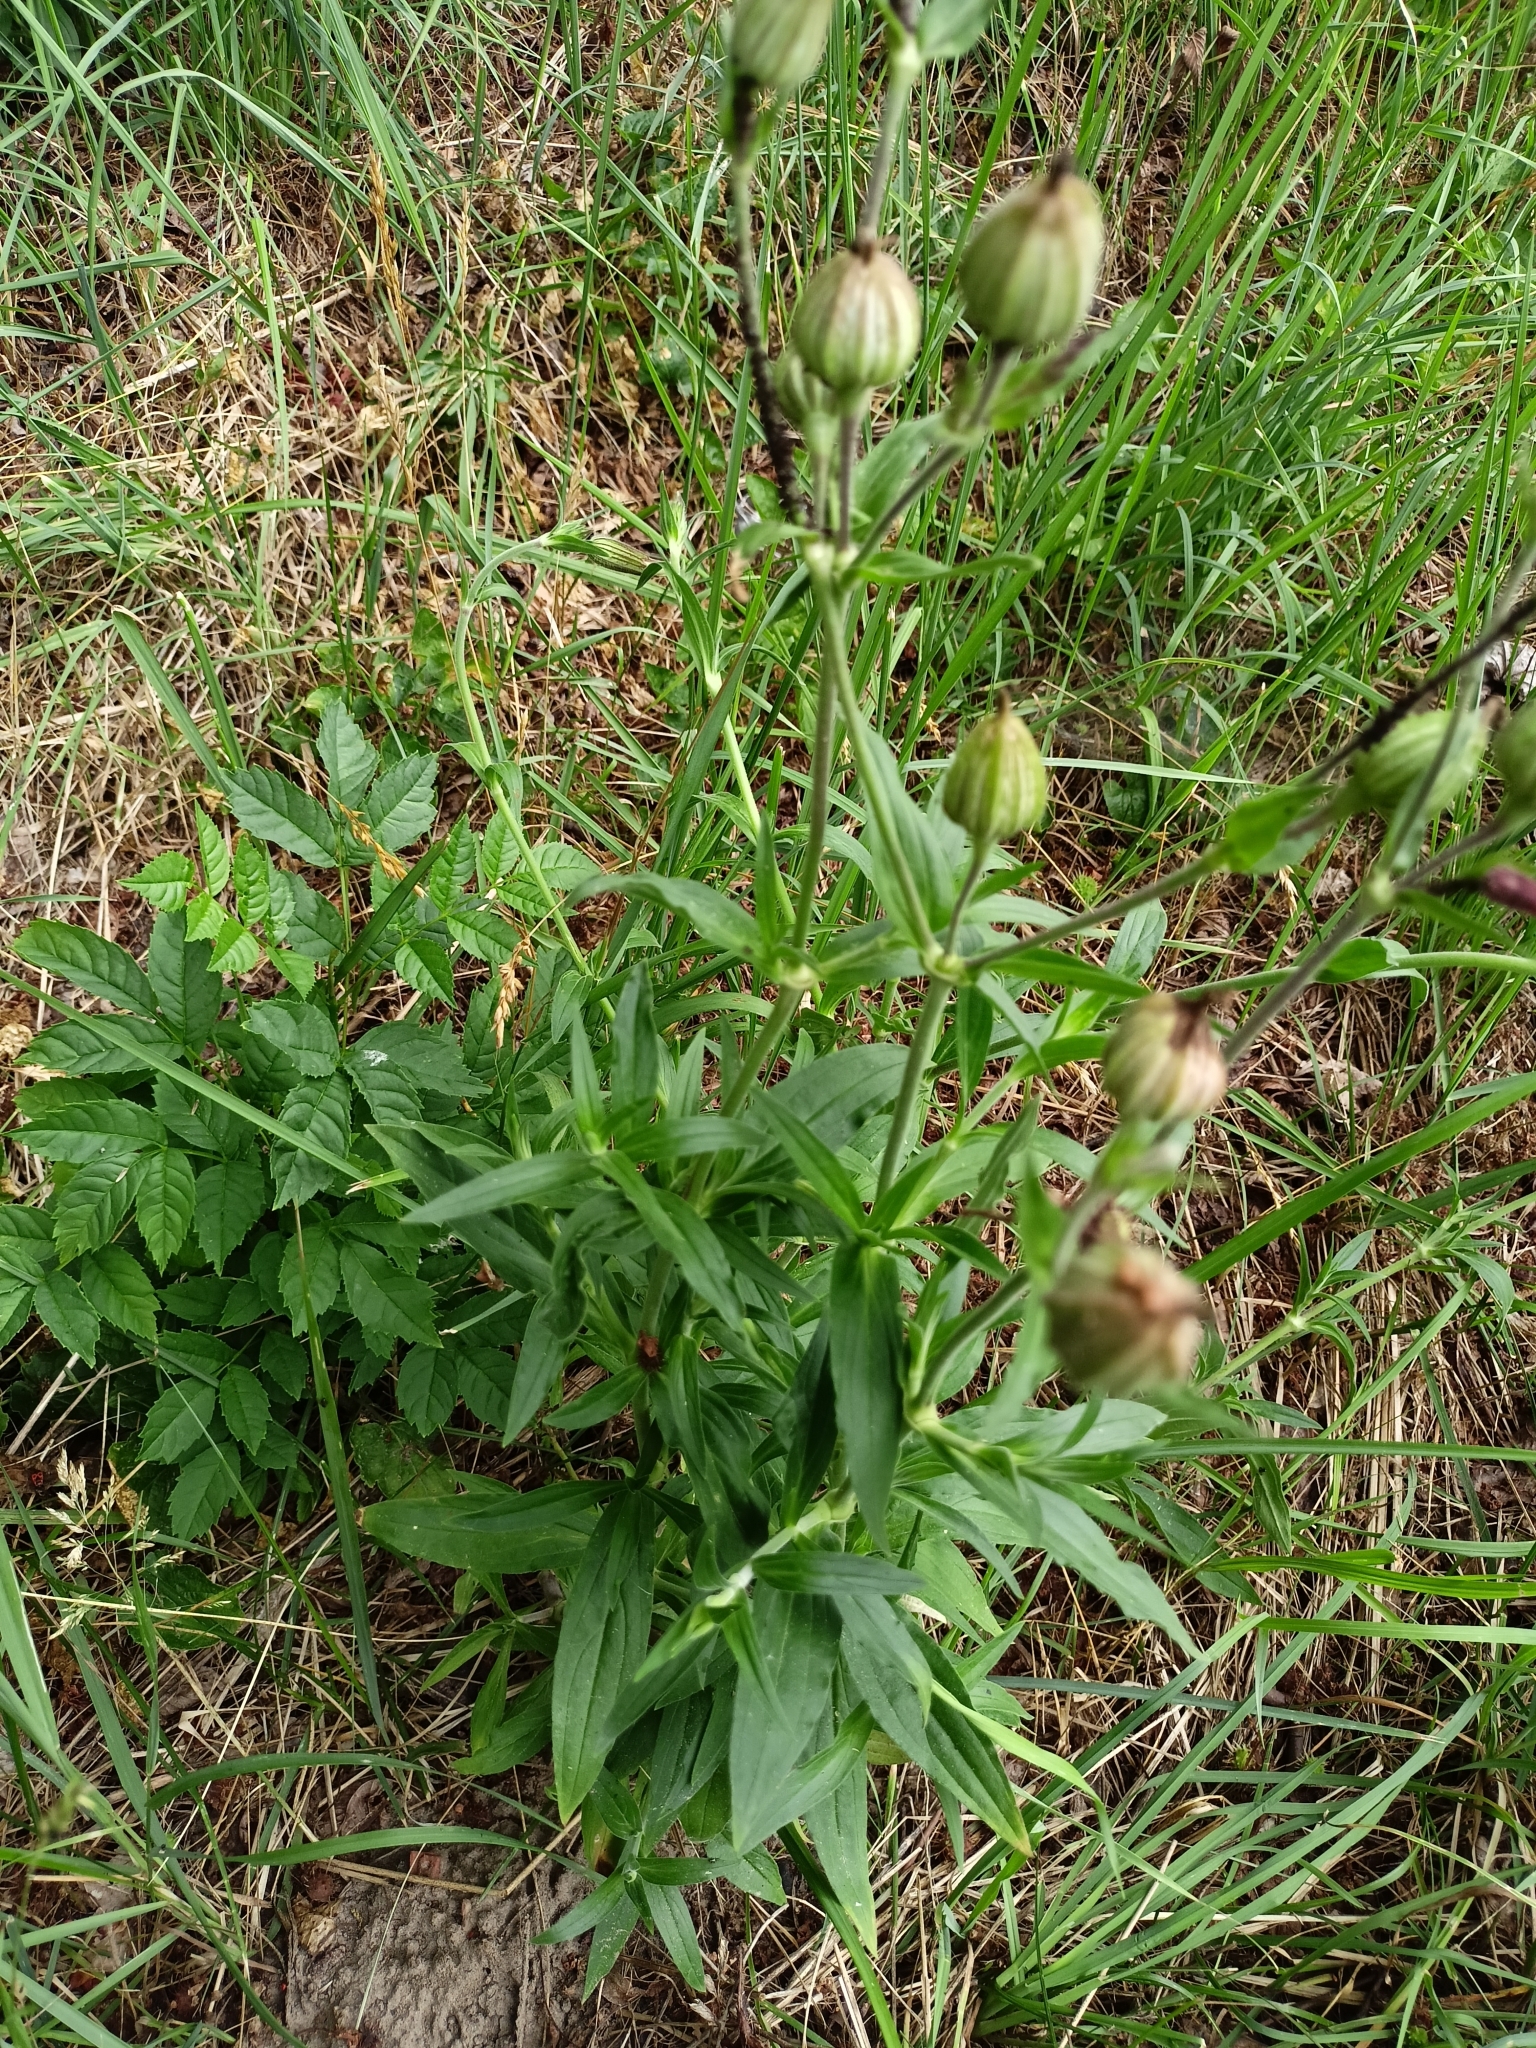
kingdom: Plantae
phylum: Tracheophyta
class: Magnoliopsida
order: Caryophyllales
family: Caryophyllaceae
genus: Silene
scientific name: Silene latifolia
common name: White campion
